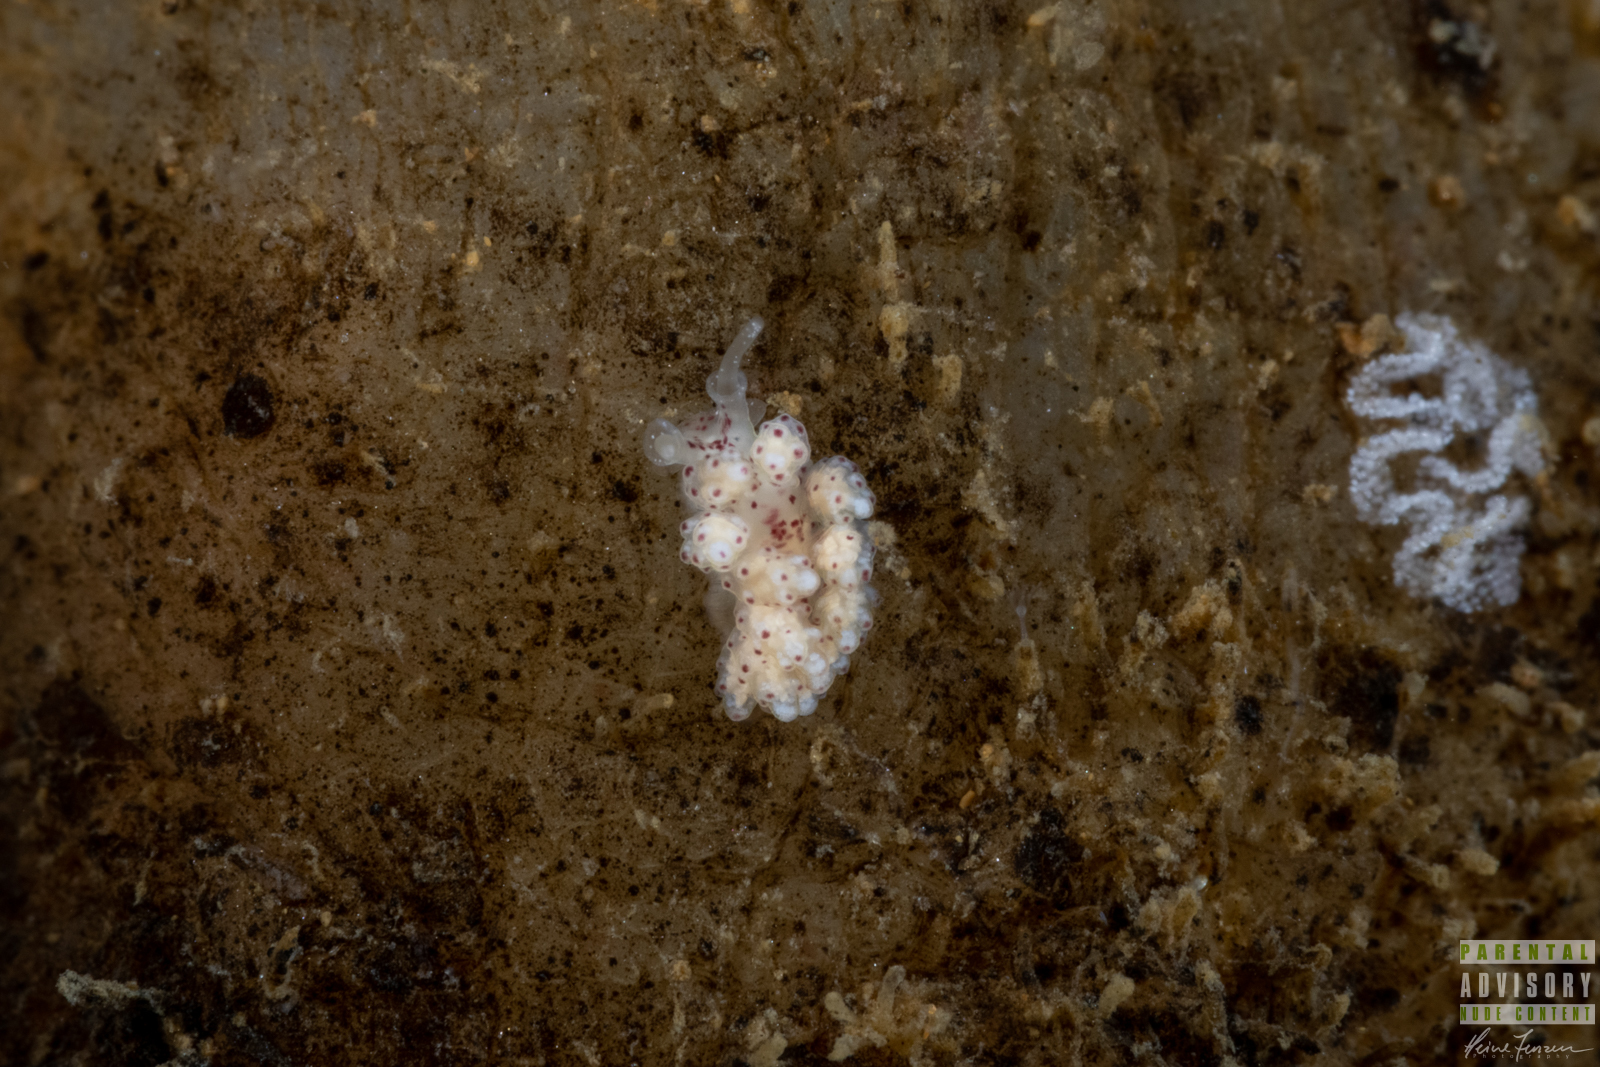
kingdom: Animalia
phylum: Mollusca
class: Gastropoda
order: Nudibranchia
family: Dotidae
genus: Doto
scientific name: Doto coronata
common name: Coronate doto
